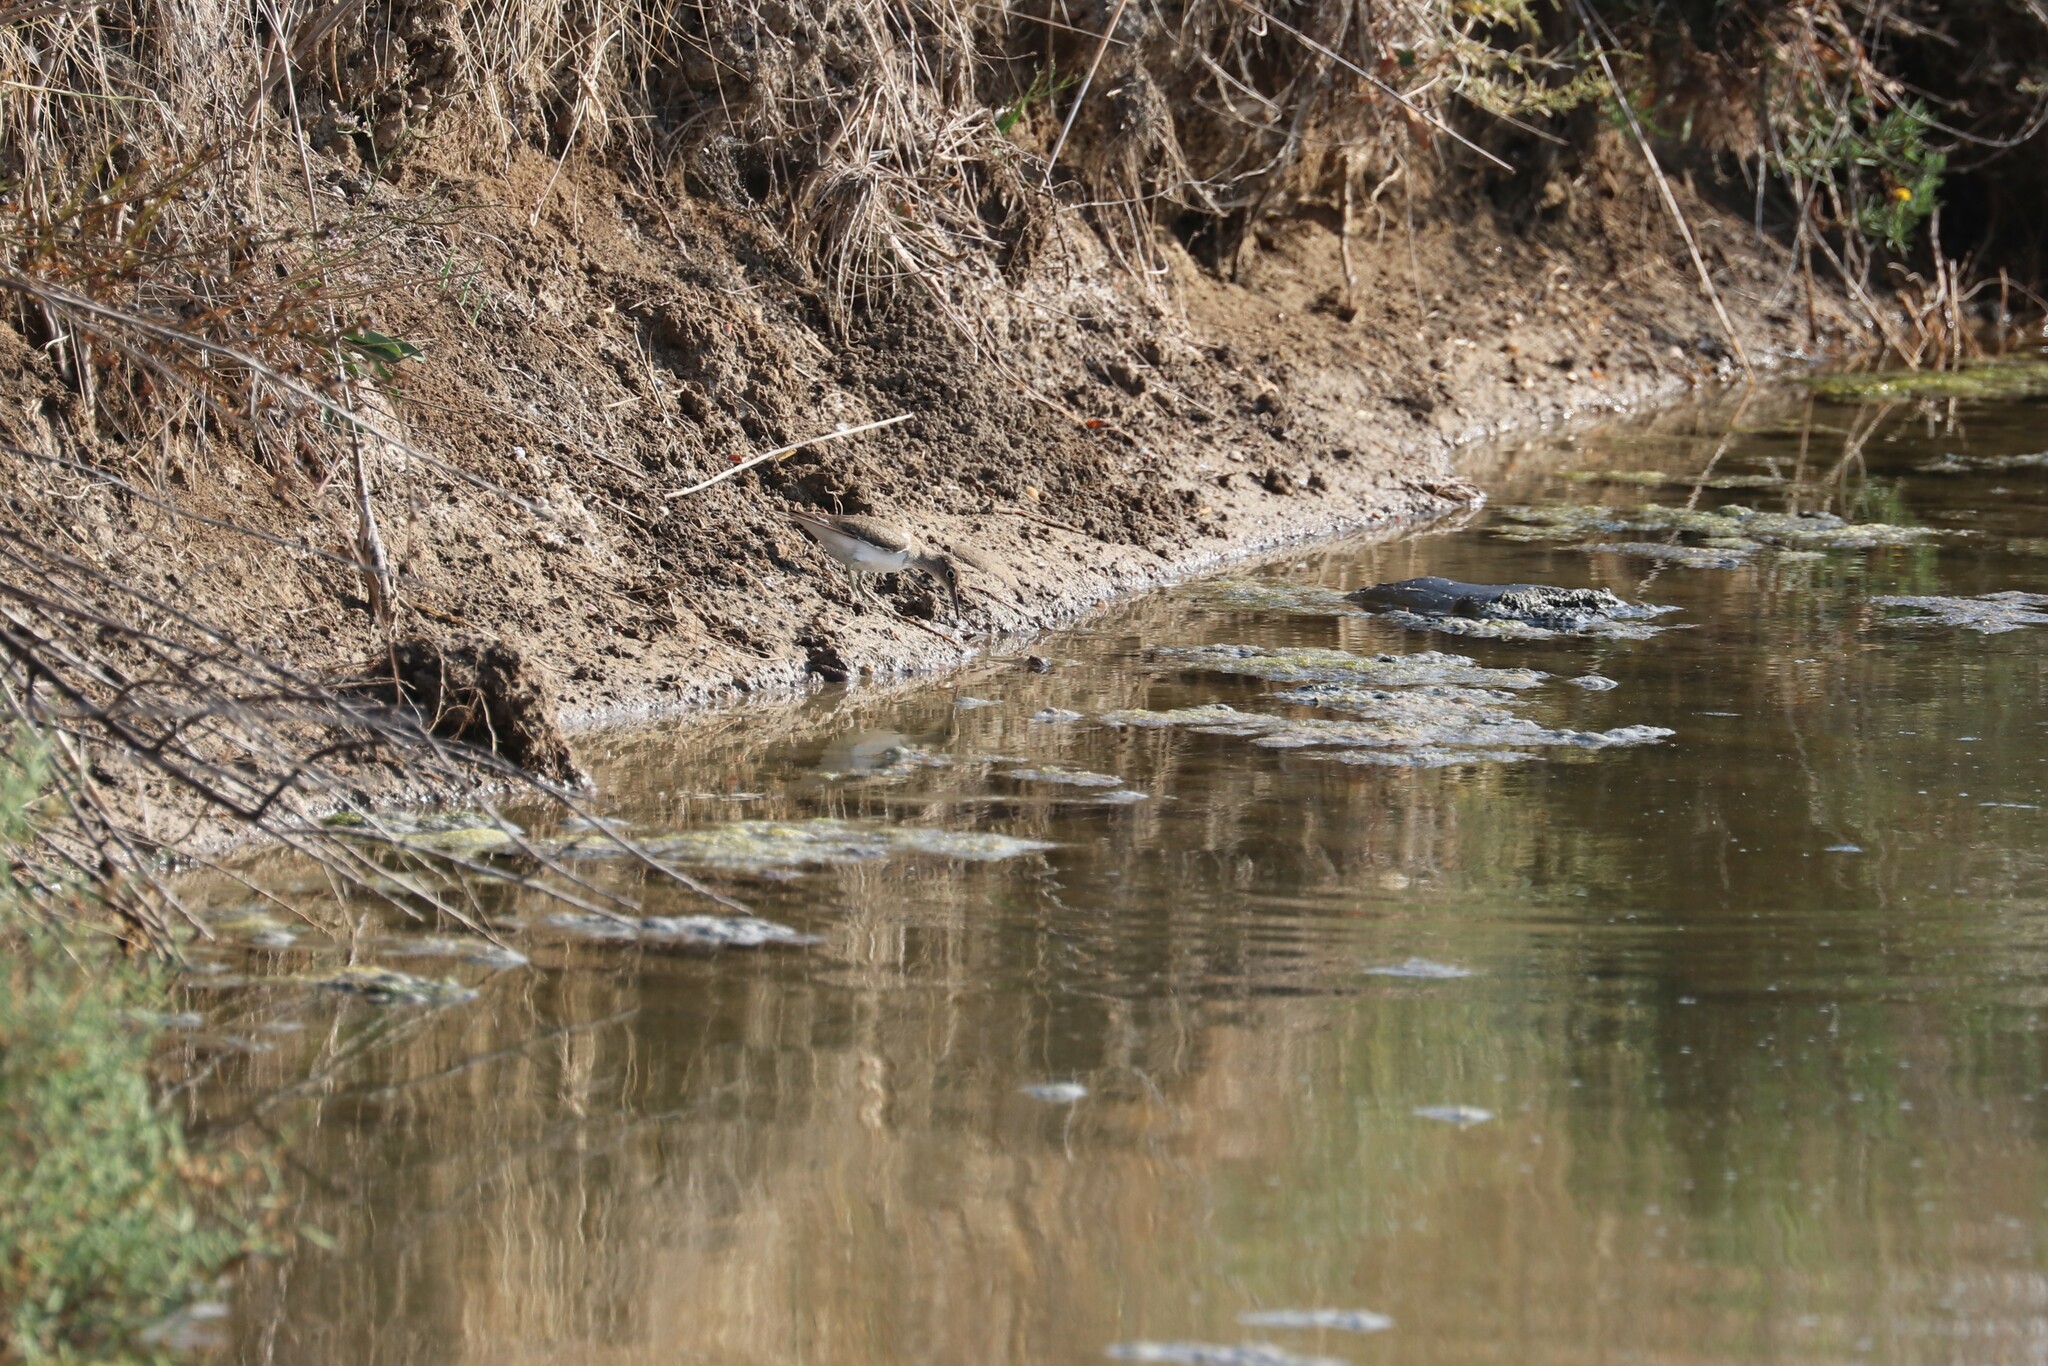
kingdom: Animalia
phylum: Chordata
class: Aves
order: Charadriiformes
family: Scolopacidae
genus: Actitis
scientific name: Actitis hypoleucos
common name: Common sandpiper
